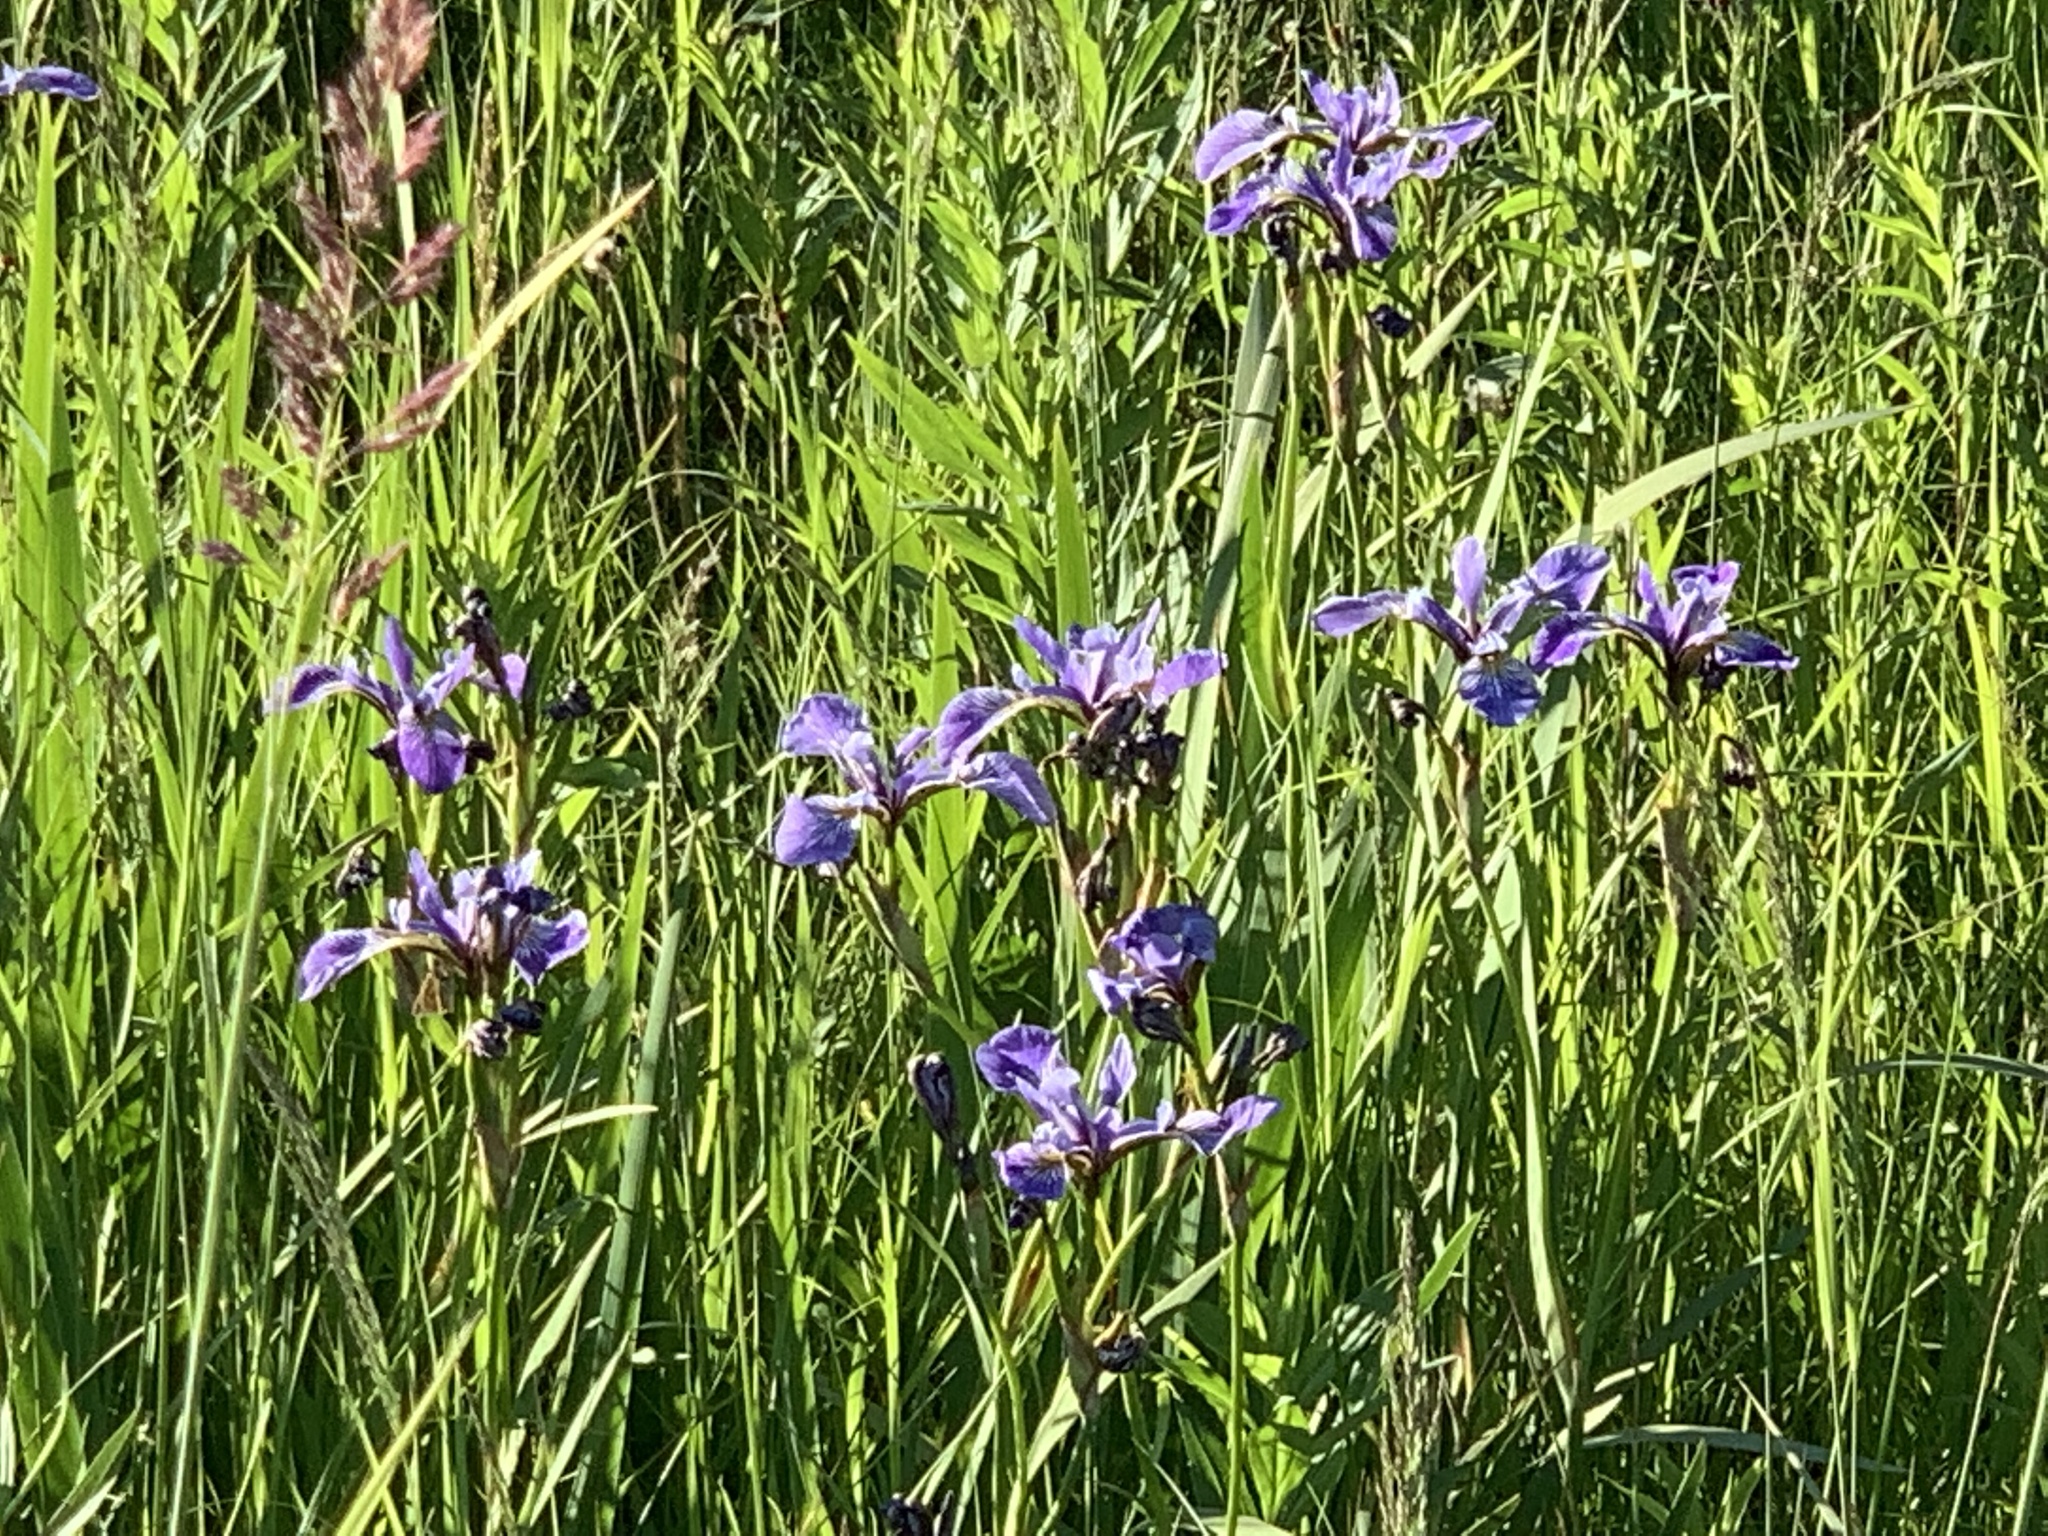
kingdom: Plantae
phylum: Tracheophyta
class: Liliopsida
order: Asparagales
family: Iridaceae
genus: Iris
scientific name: Iris versicolor
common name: Purple iris
